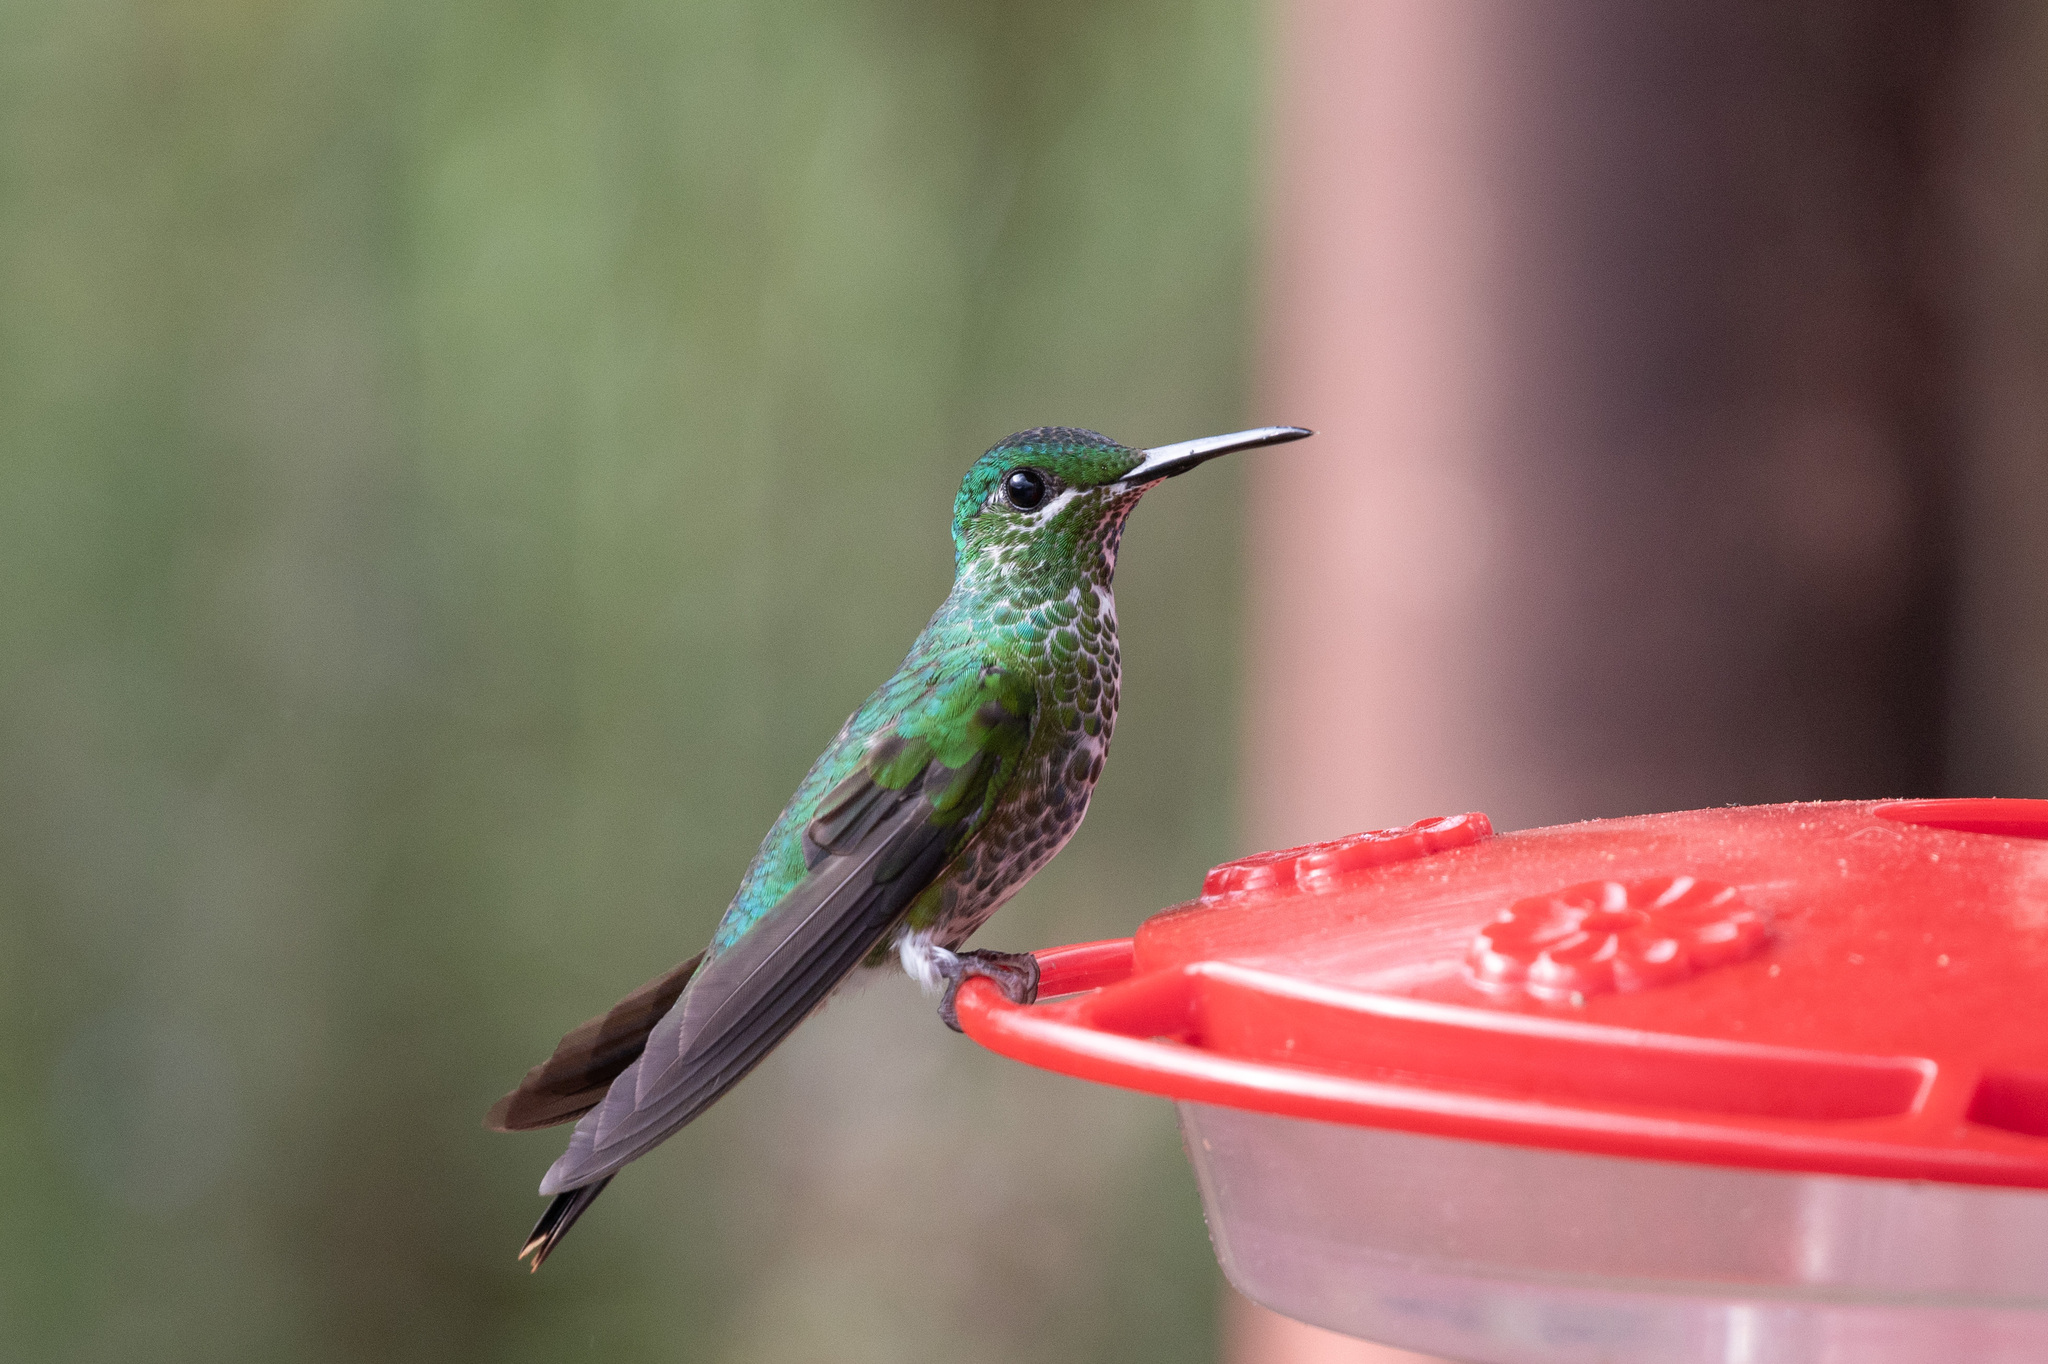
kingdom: Animalia
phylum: Chordata
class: Aves
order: Apodiformes
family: Trochilidae
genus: Heliodoxa
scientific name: Heliodoxa jacula
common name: Green-crowned brilliant
